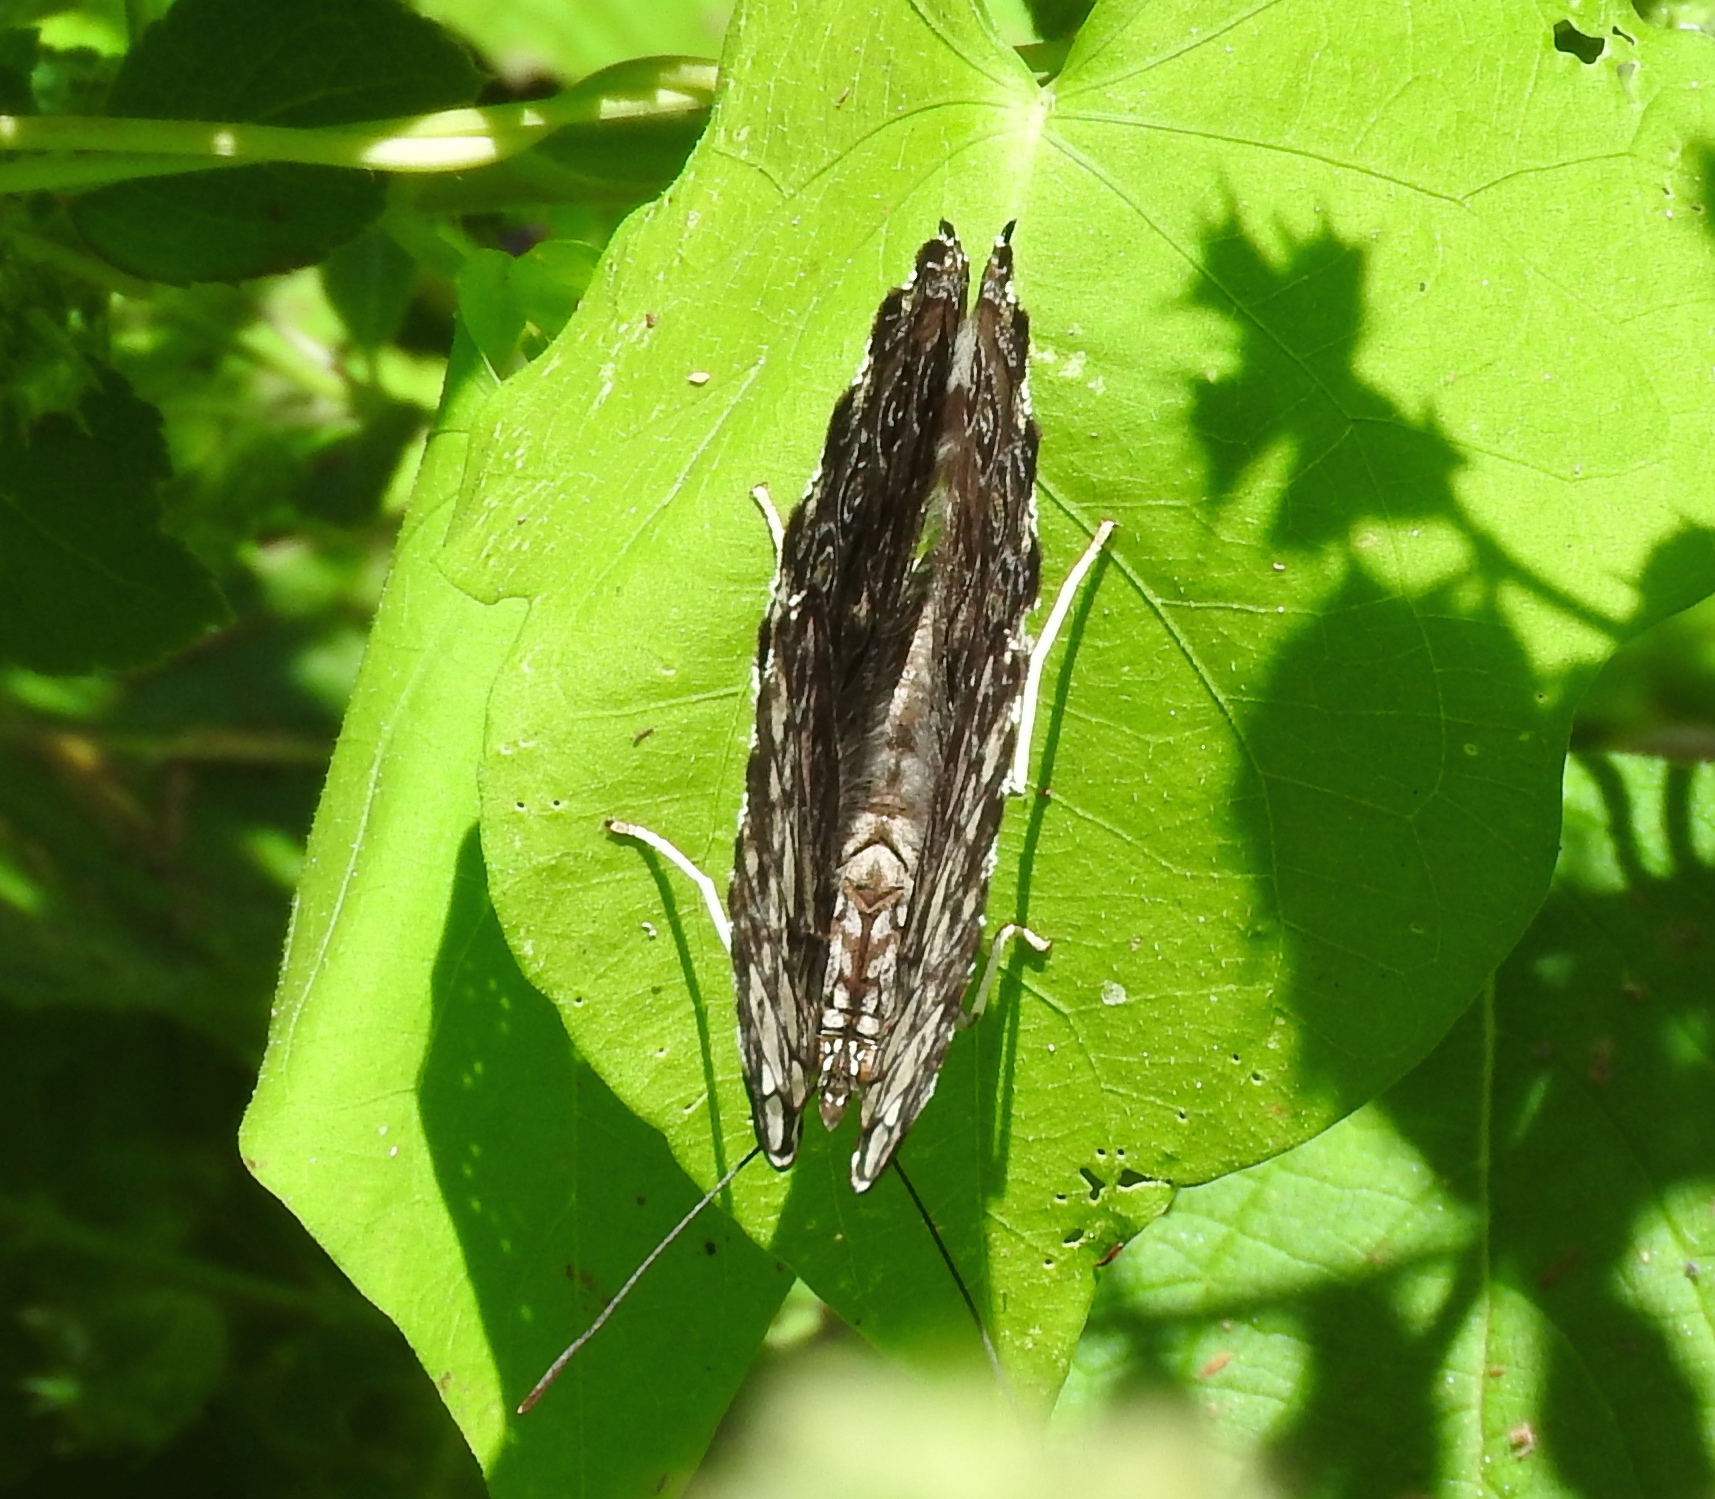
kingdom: Animalia
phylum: Arthropoda
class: Insecta
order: Lepidoptera
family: Nymphalidae
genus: Hamadryas
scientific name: Hamadryas guatemalena
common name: Guatemalan cracker
